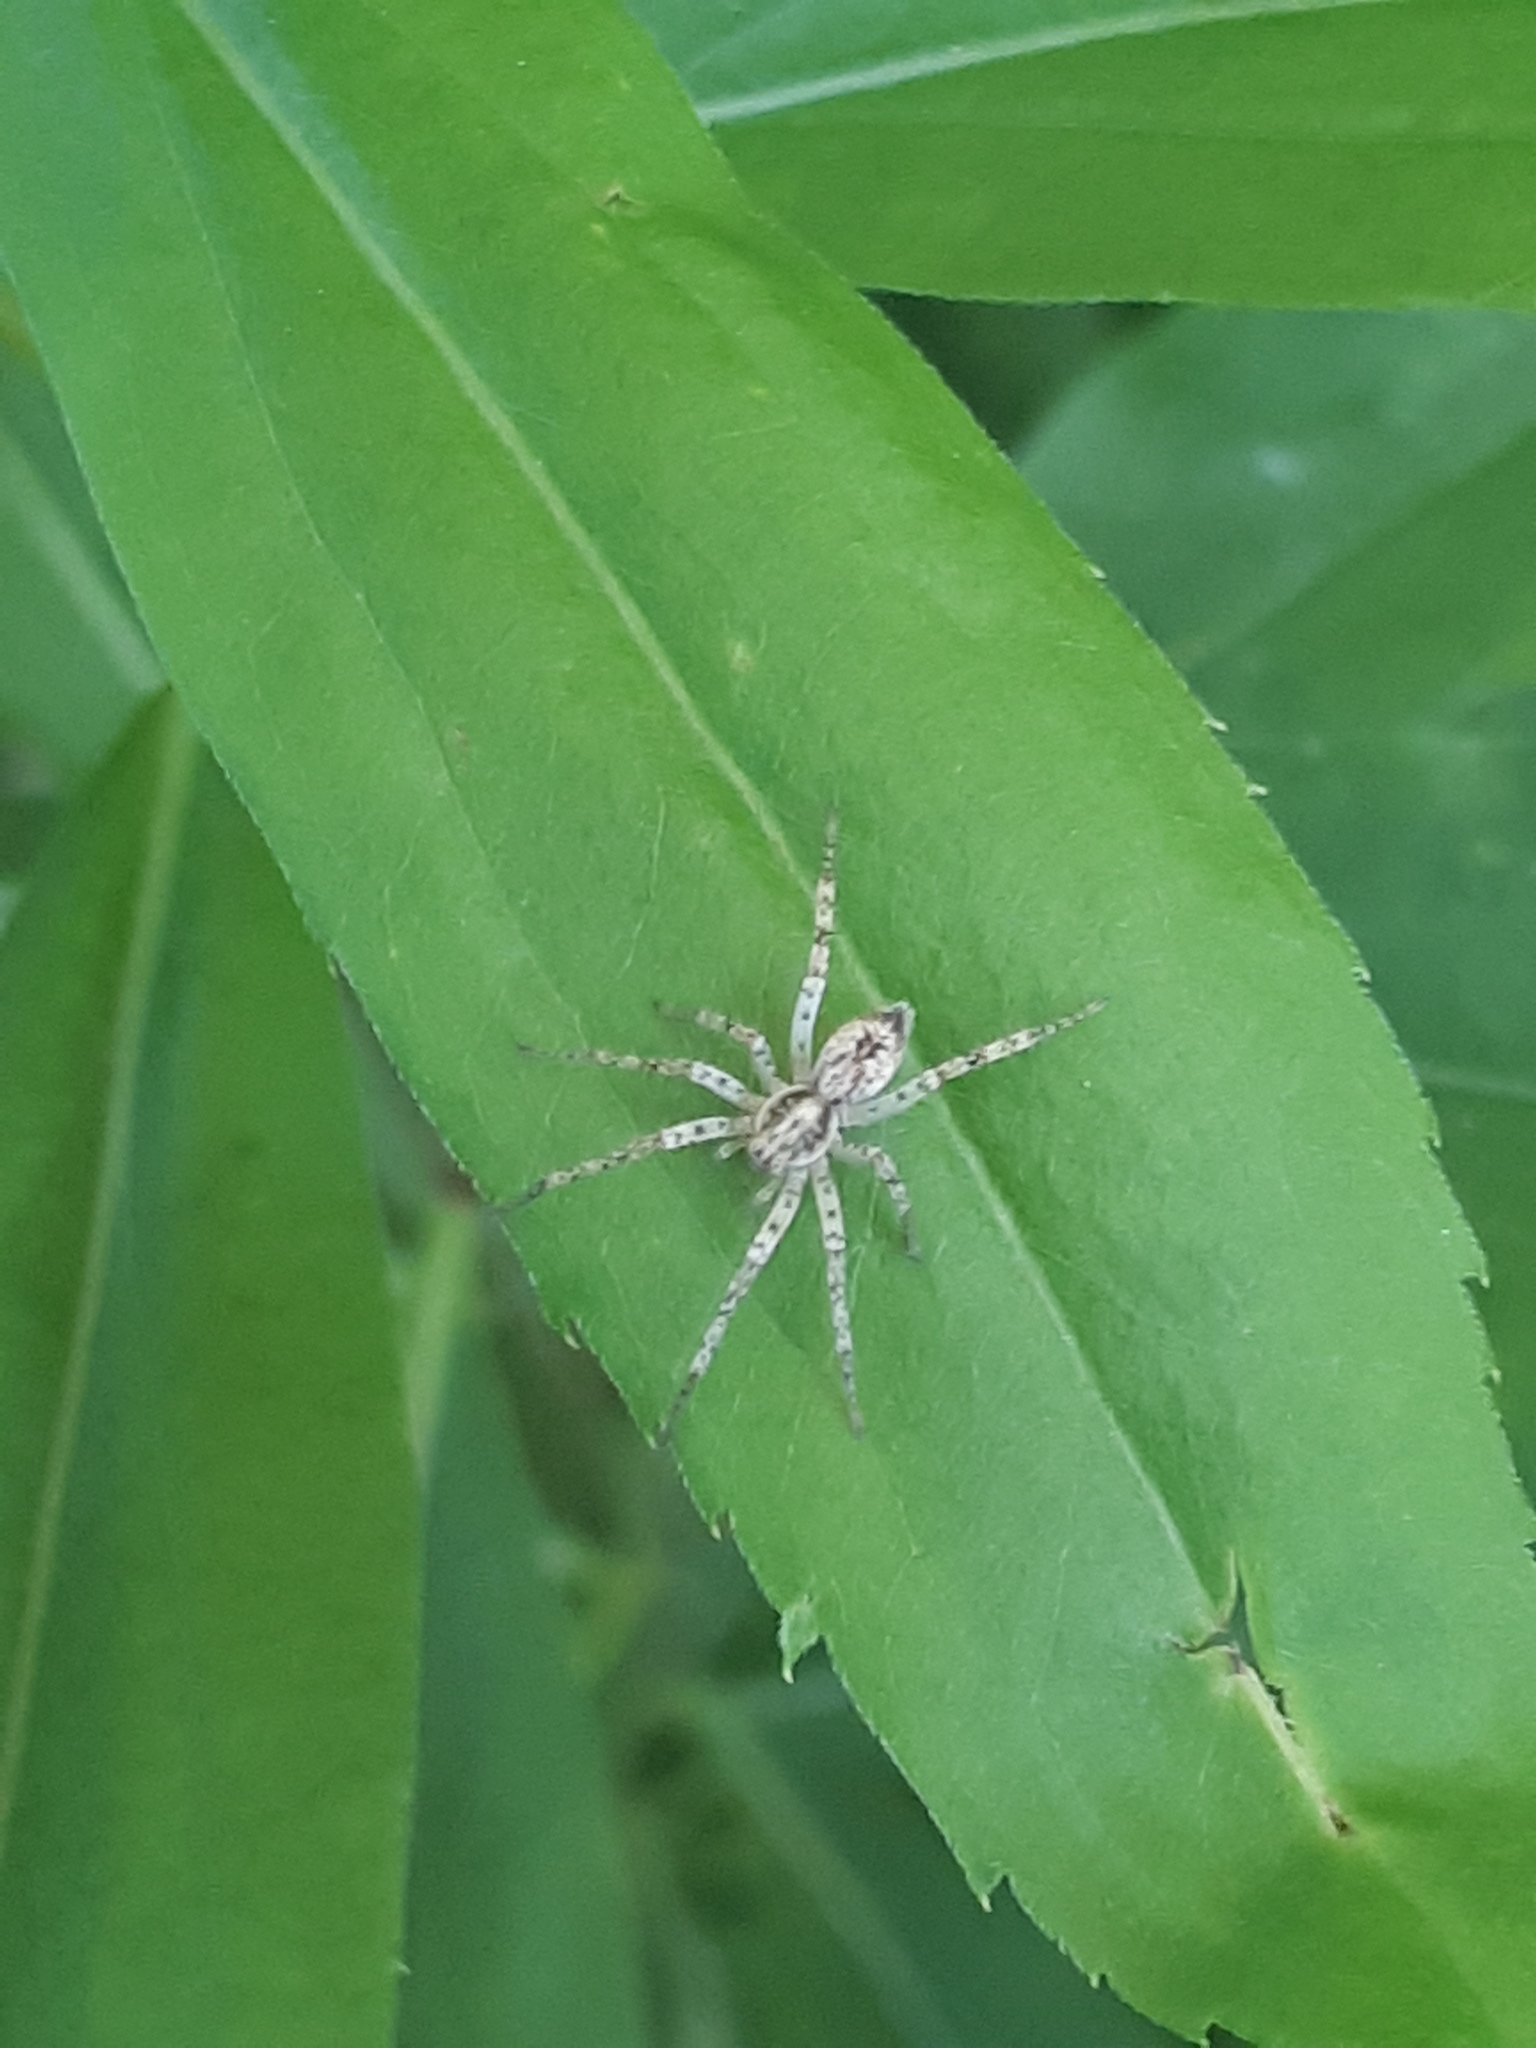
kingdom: Animalia
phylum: Arthropoda
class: Arachnida
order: Araneae
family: Anyphaenidae
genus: Anyphaena
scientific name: Anyphaena accentuata
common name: Buzzing spider
